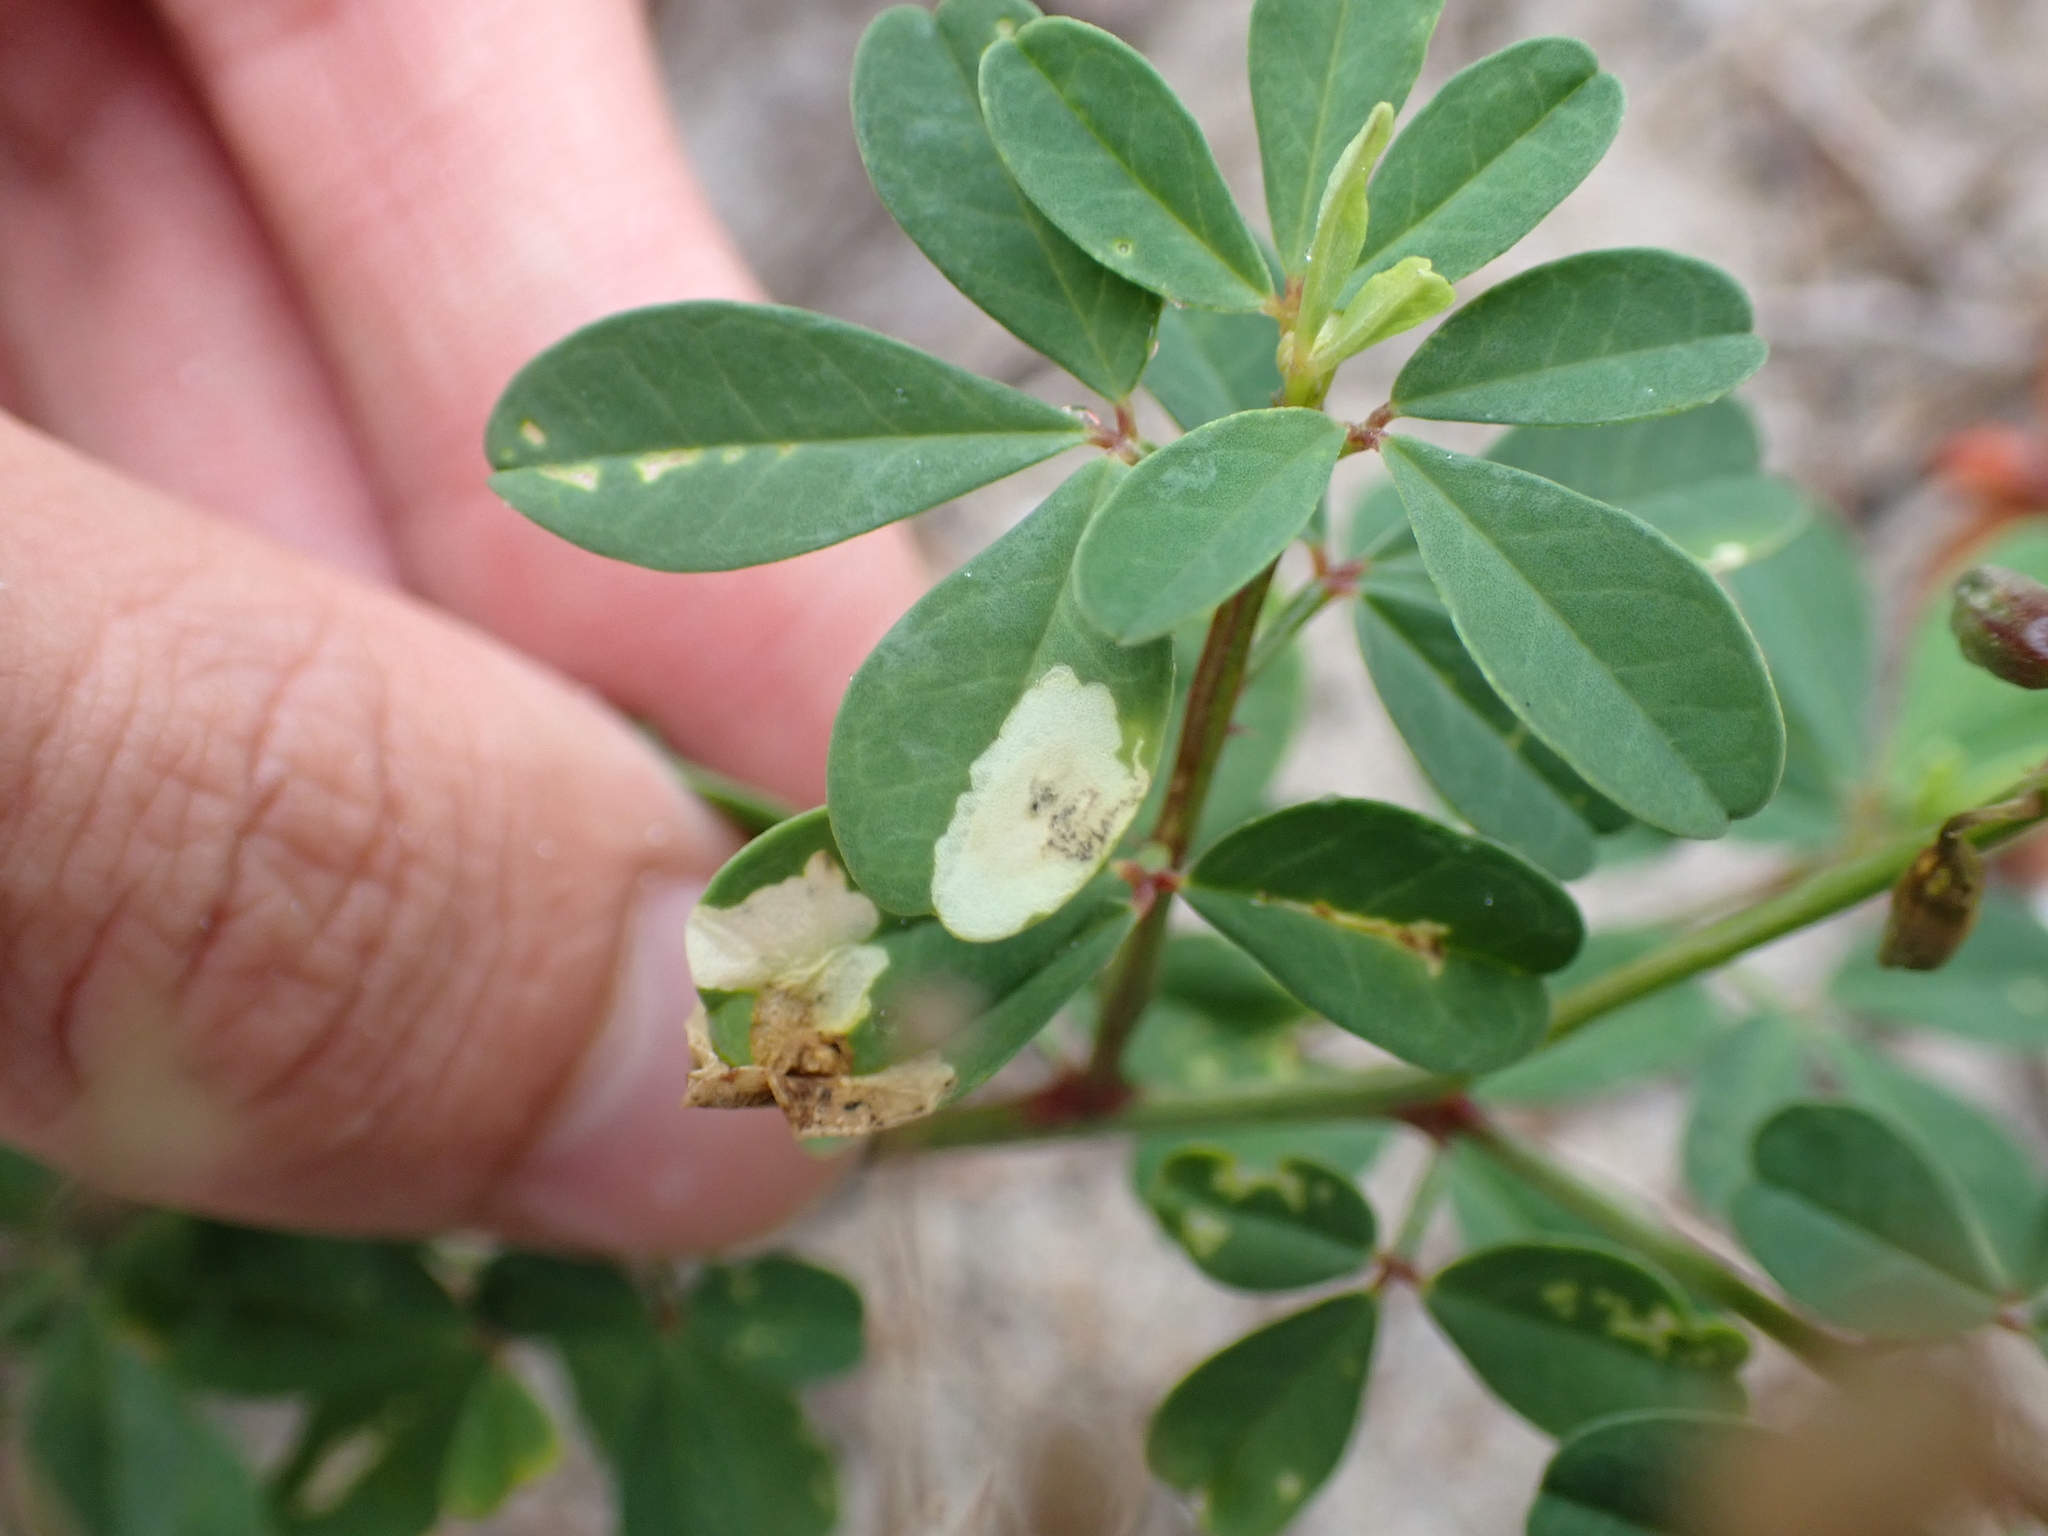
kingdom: Plantae
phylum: Tracheophyta
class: Magnoliopsida
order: Fabales
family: Fabaceae
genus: Crotalaria
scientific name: Crotalaria pumila
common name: Low rattlebox
